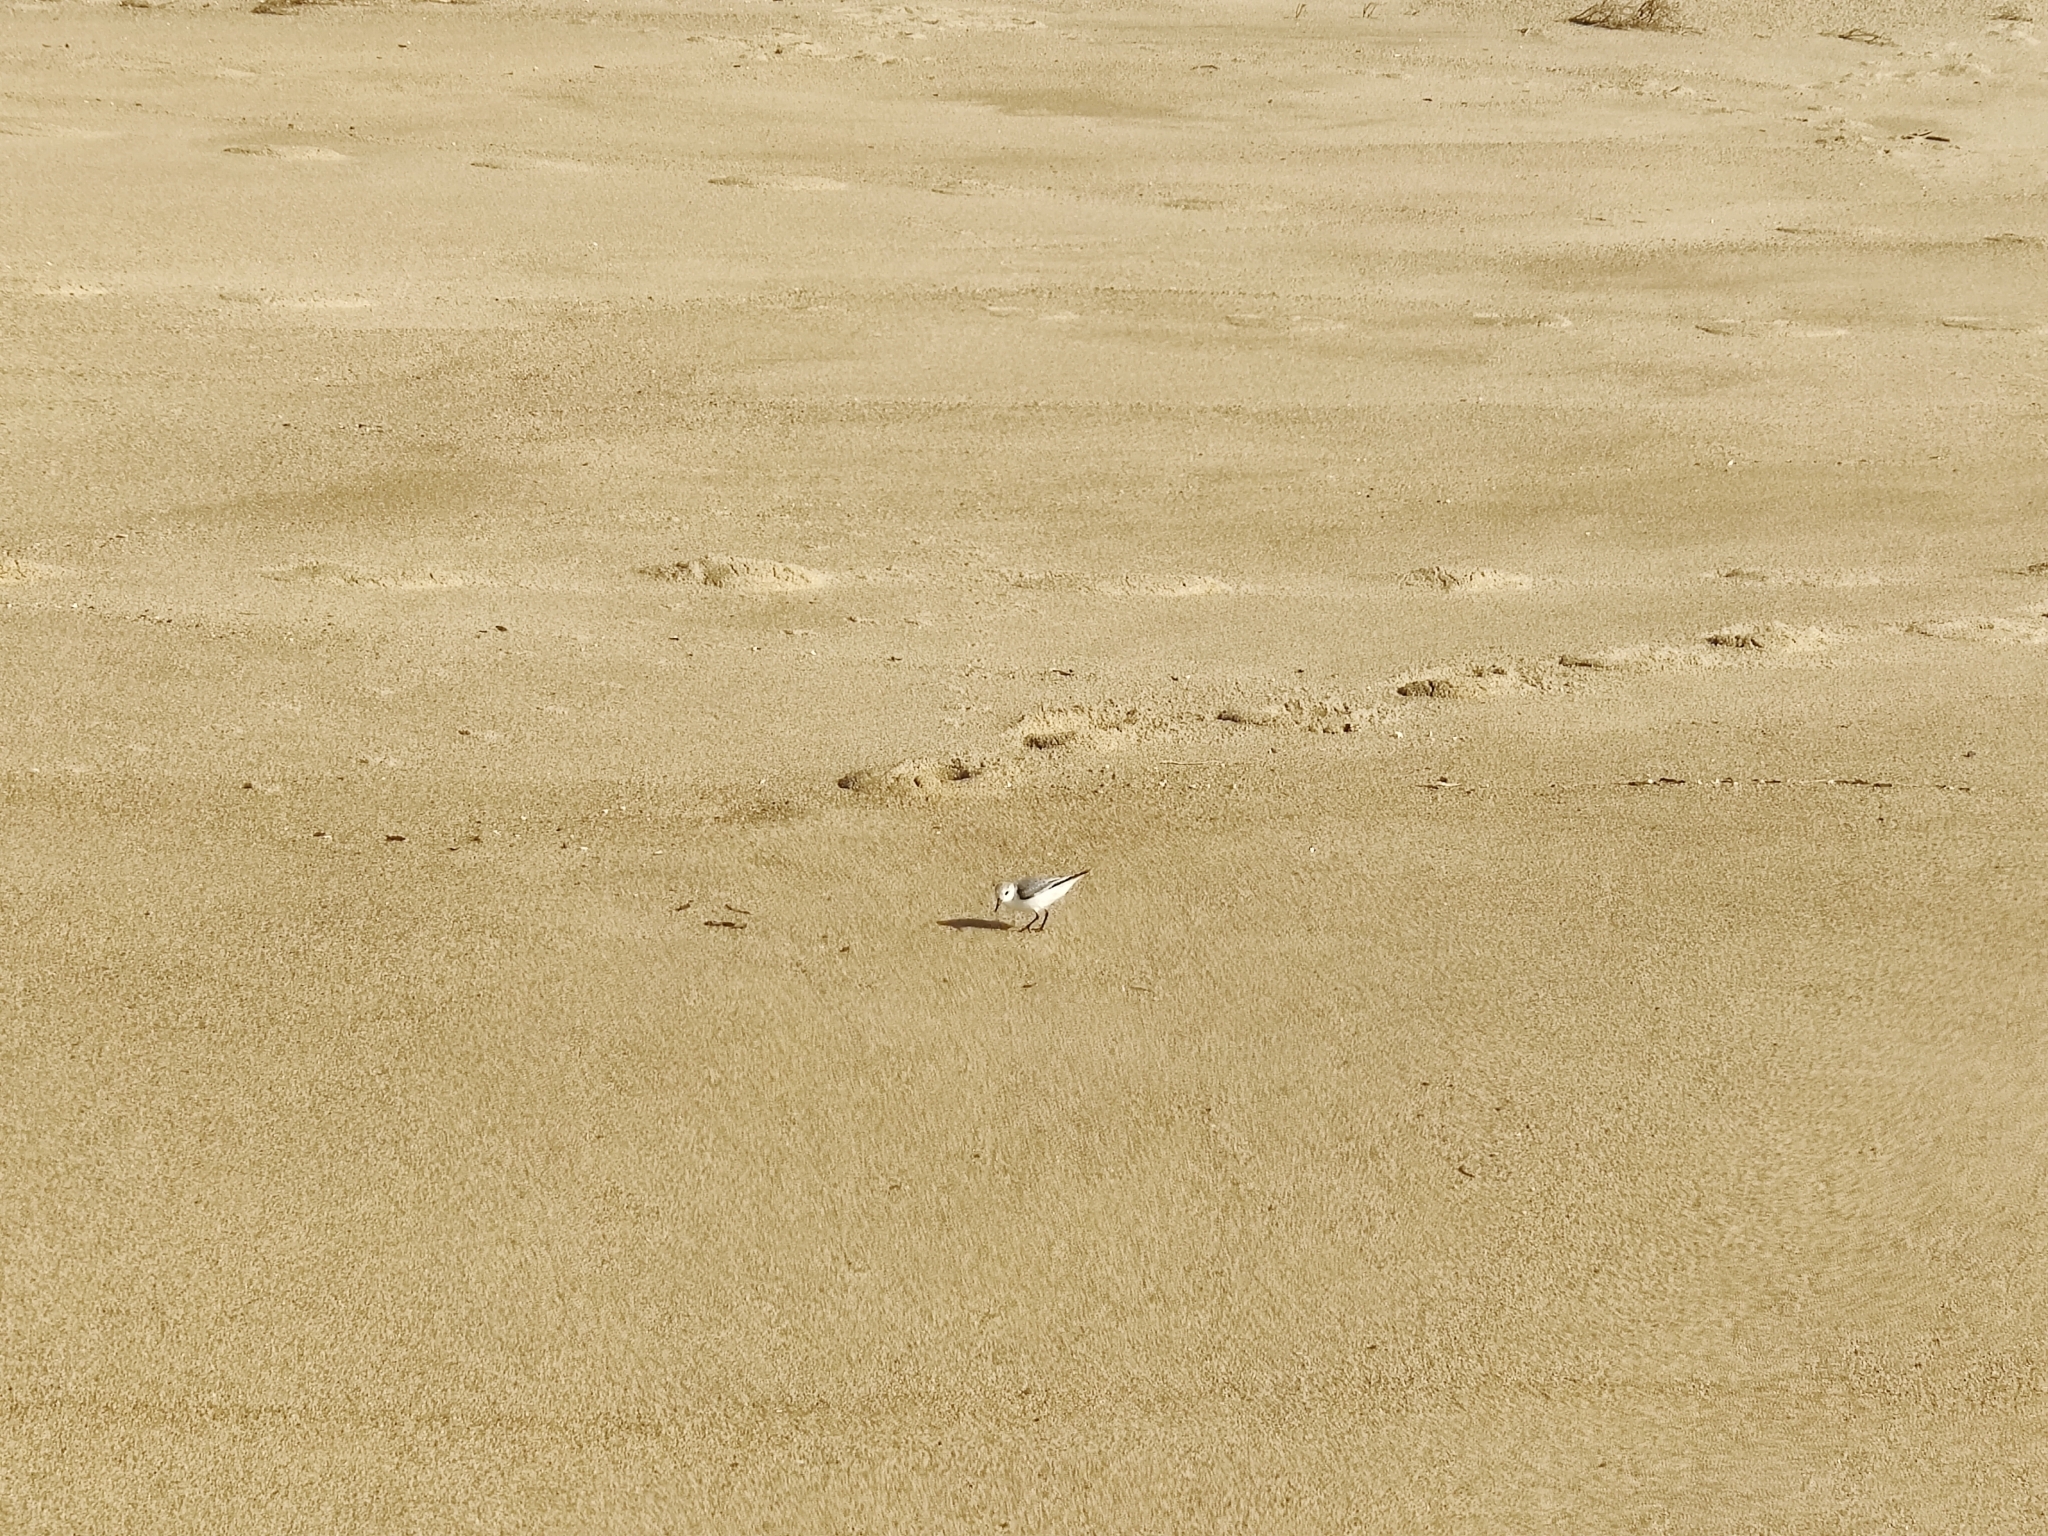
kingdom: Animalia
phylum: Chordata
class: Aves
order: Charadriiformes
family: Scolopacidae
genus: Calidris
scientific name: Calidris alba
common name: Sanderling
